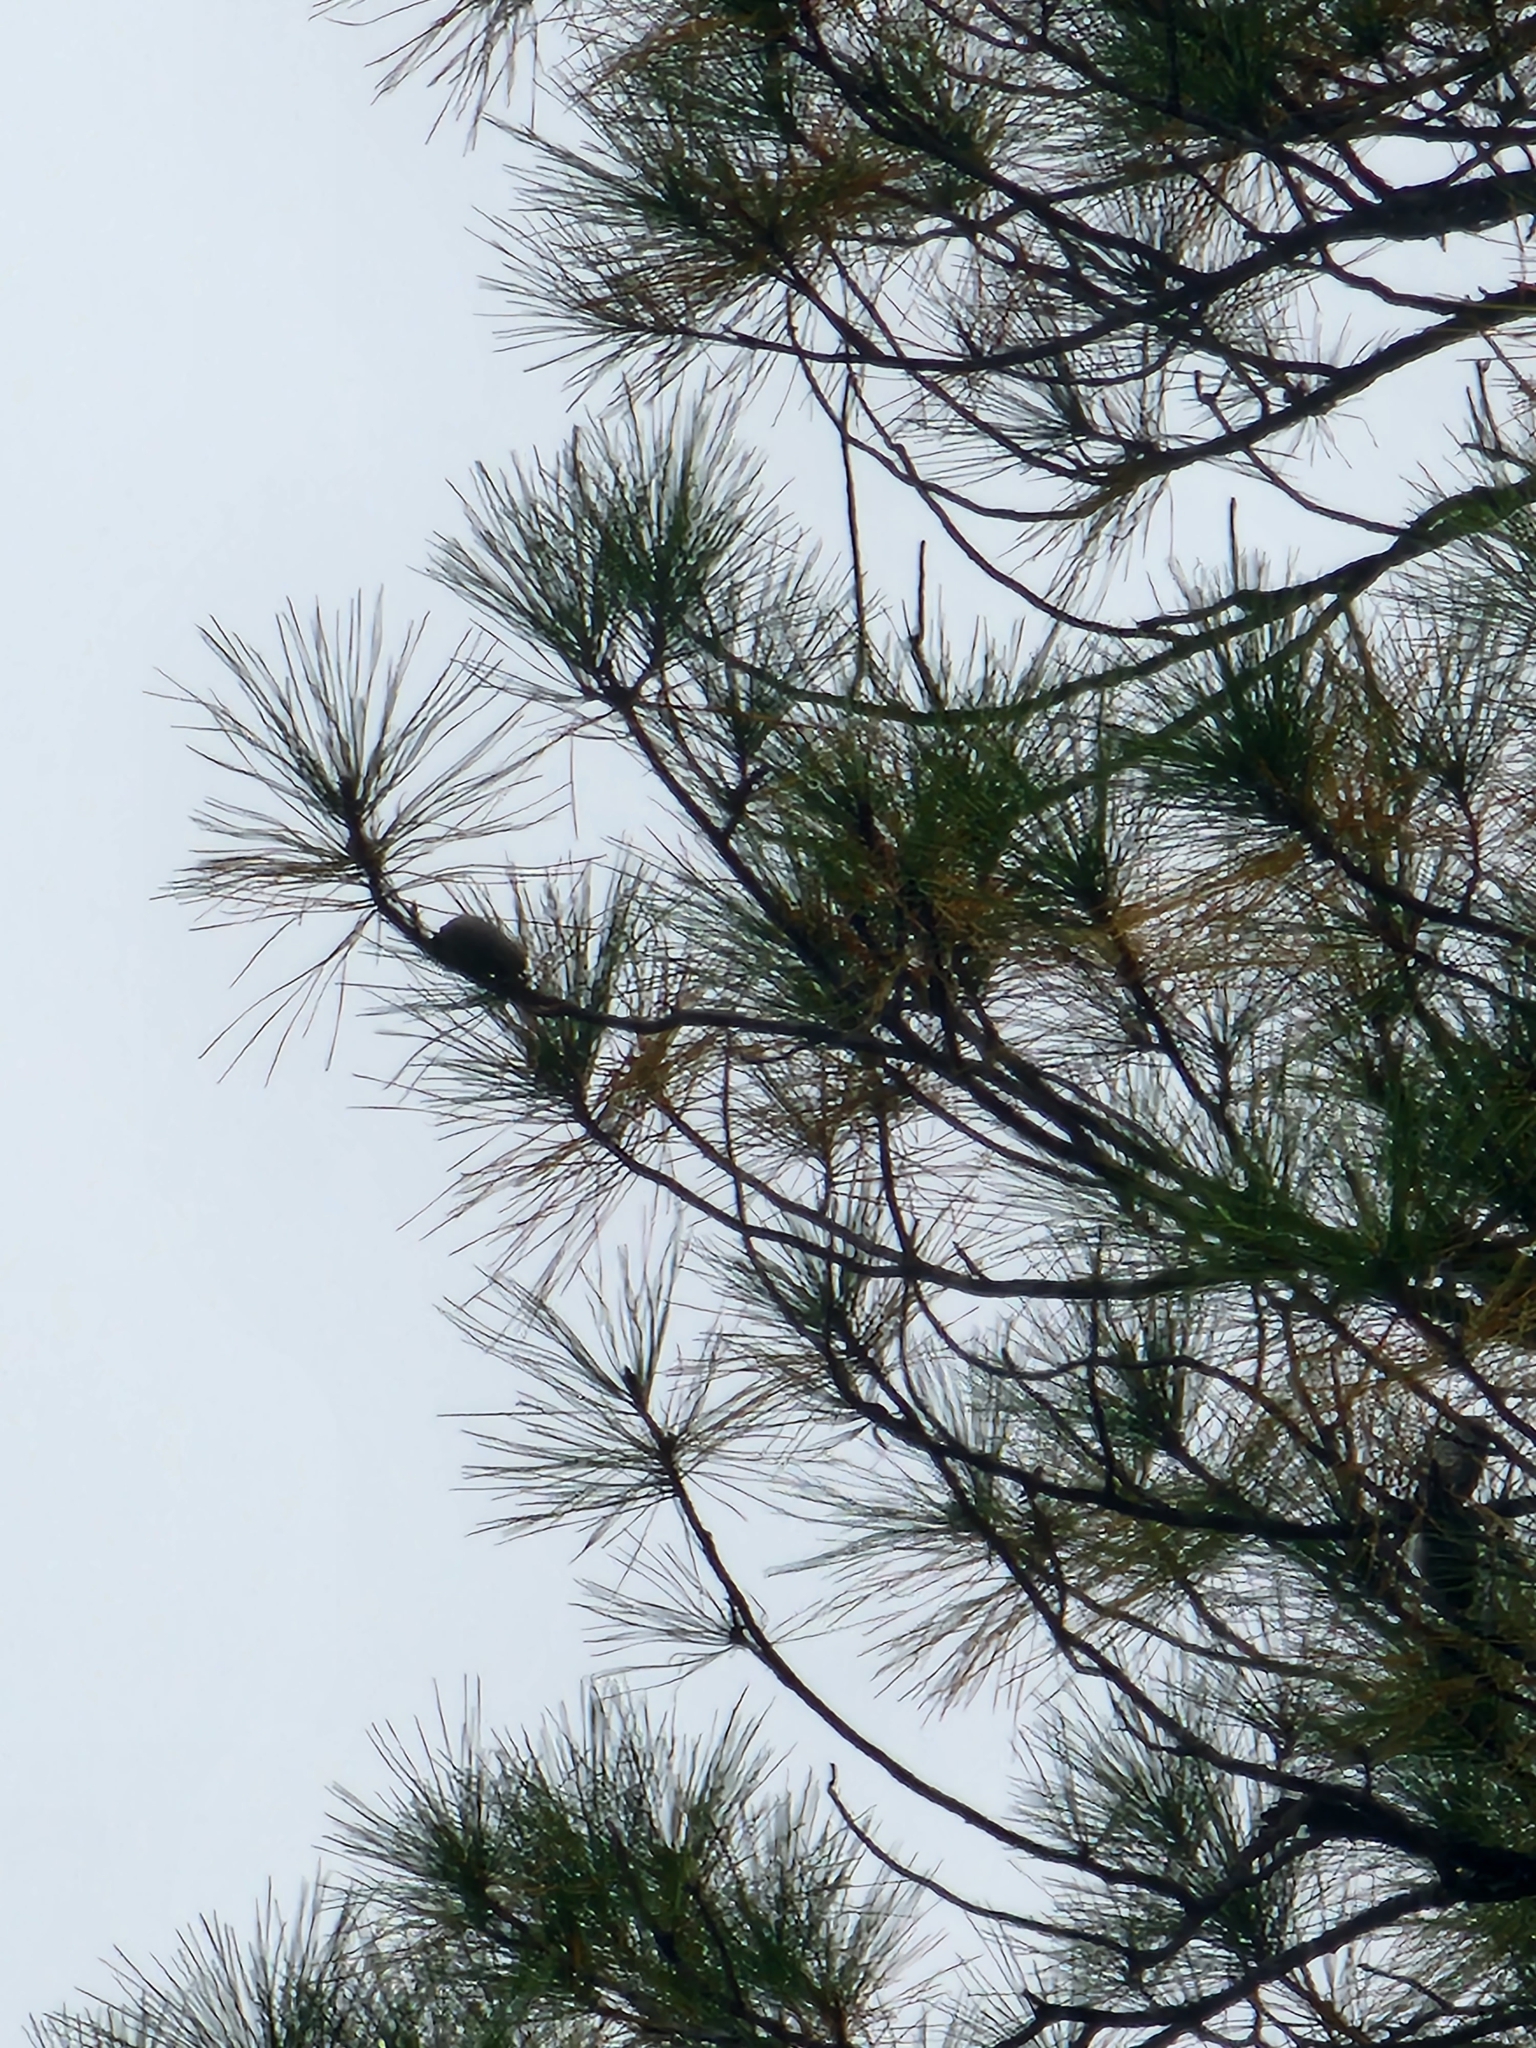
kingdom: Plantae
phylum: Tracheophyta
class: Pinopsida
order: Pinales
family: Pinaceae
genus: Pinus
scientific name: Pinus serotina
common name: Marsh pine
